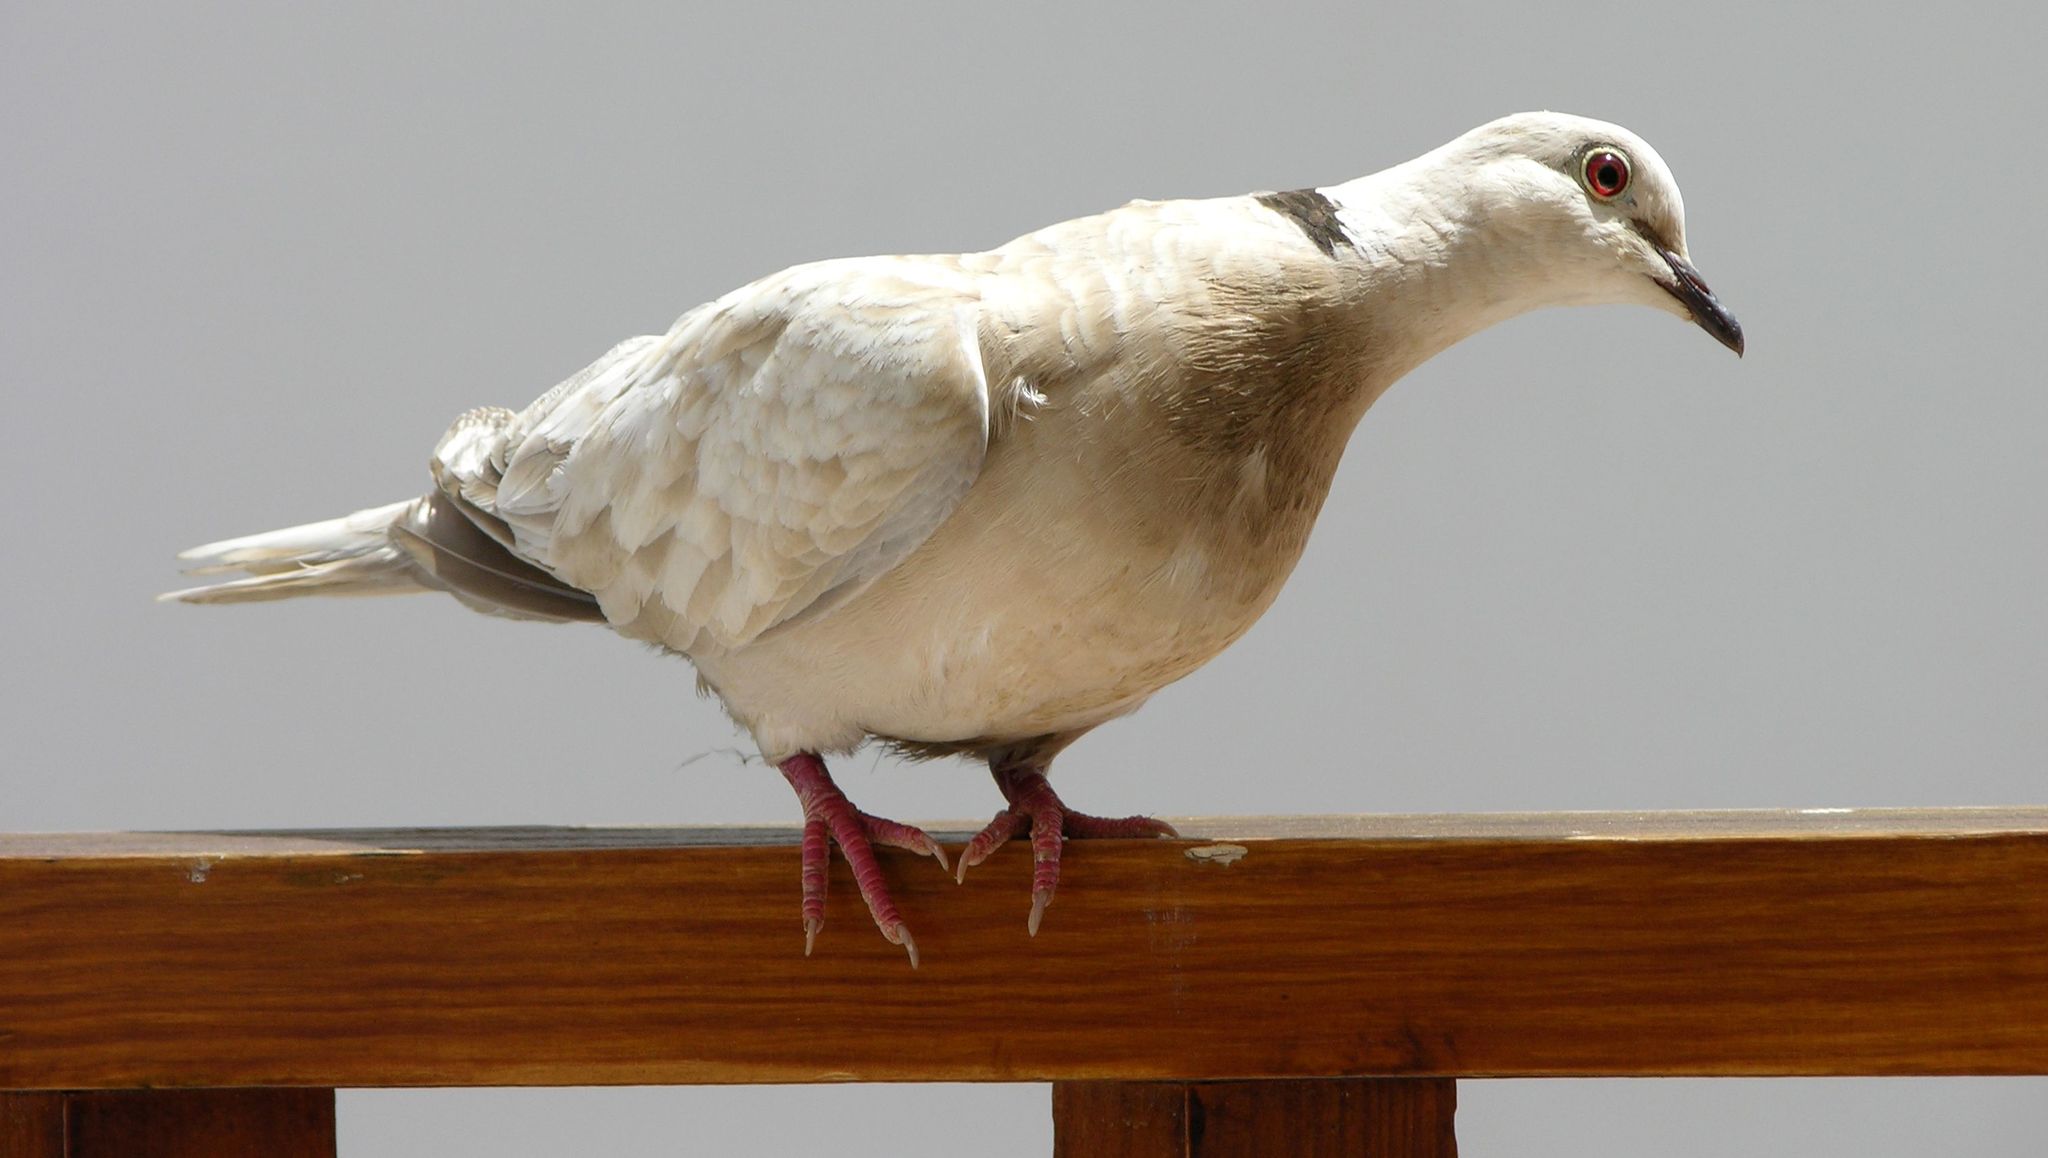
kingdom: Animalia
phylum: Chordata
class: Aves
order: Columbiformes
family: Columbidae
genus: Streptopelia
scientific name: Streptopelia roseogrisea
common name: African collared dove
